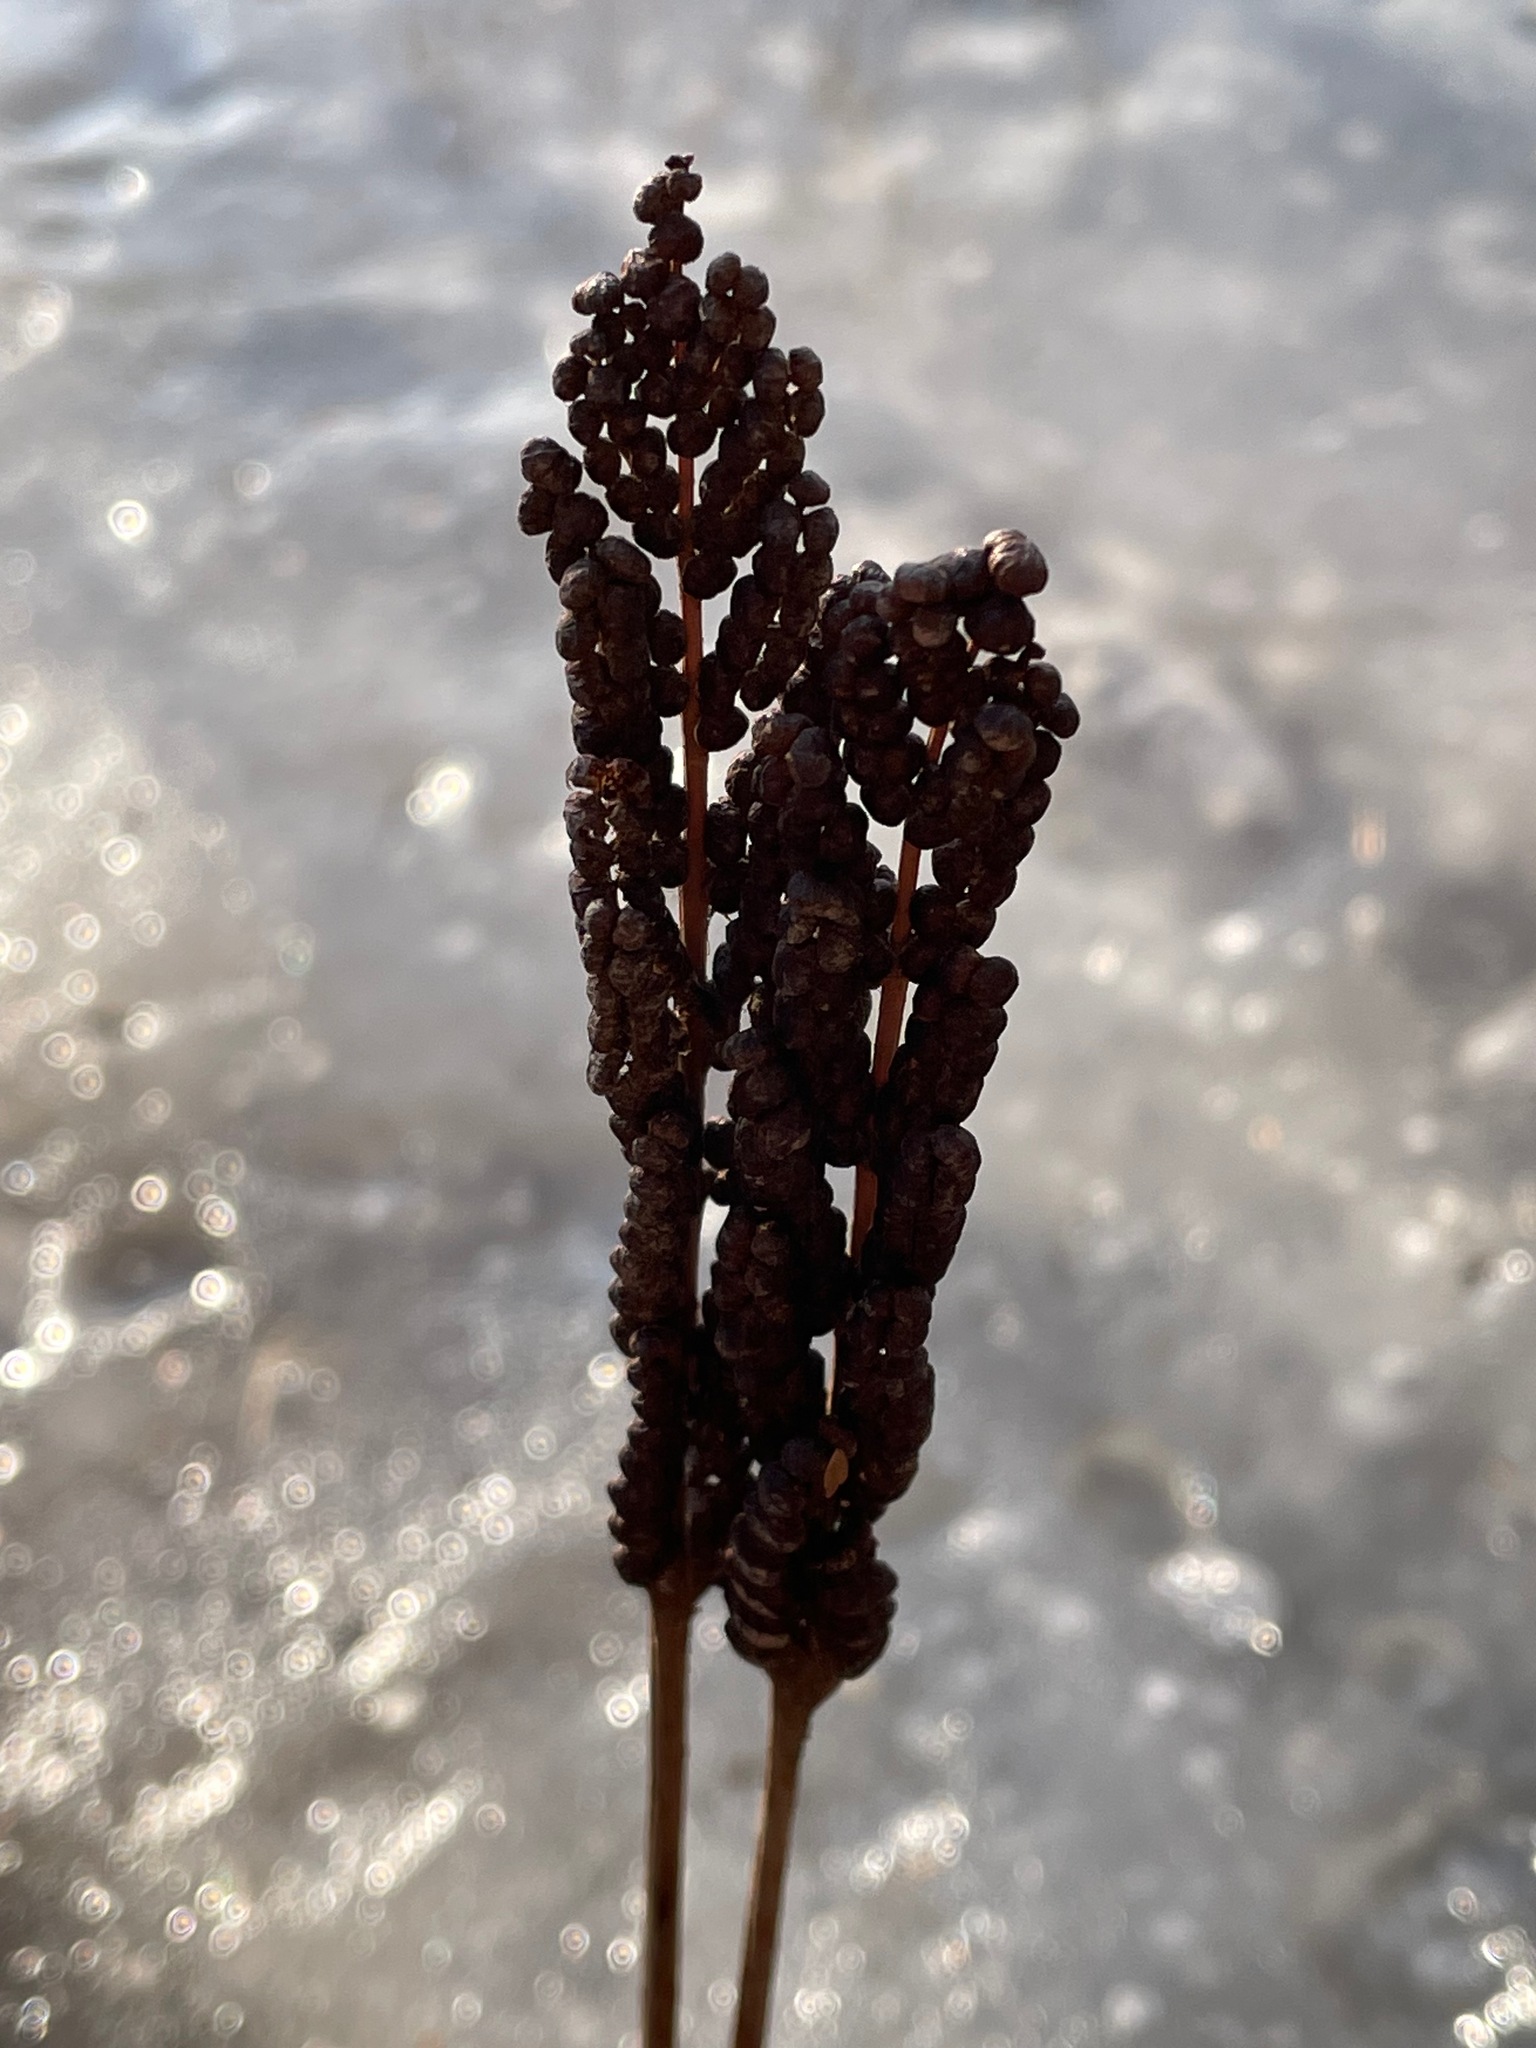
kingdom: Plantae
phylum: Tracheophyta
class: Polypodiopsida
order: Polypodiales
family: Onocleaceae
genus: Onoclea
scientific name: Onoclea sensibilis
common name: Sensitive fern
